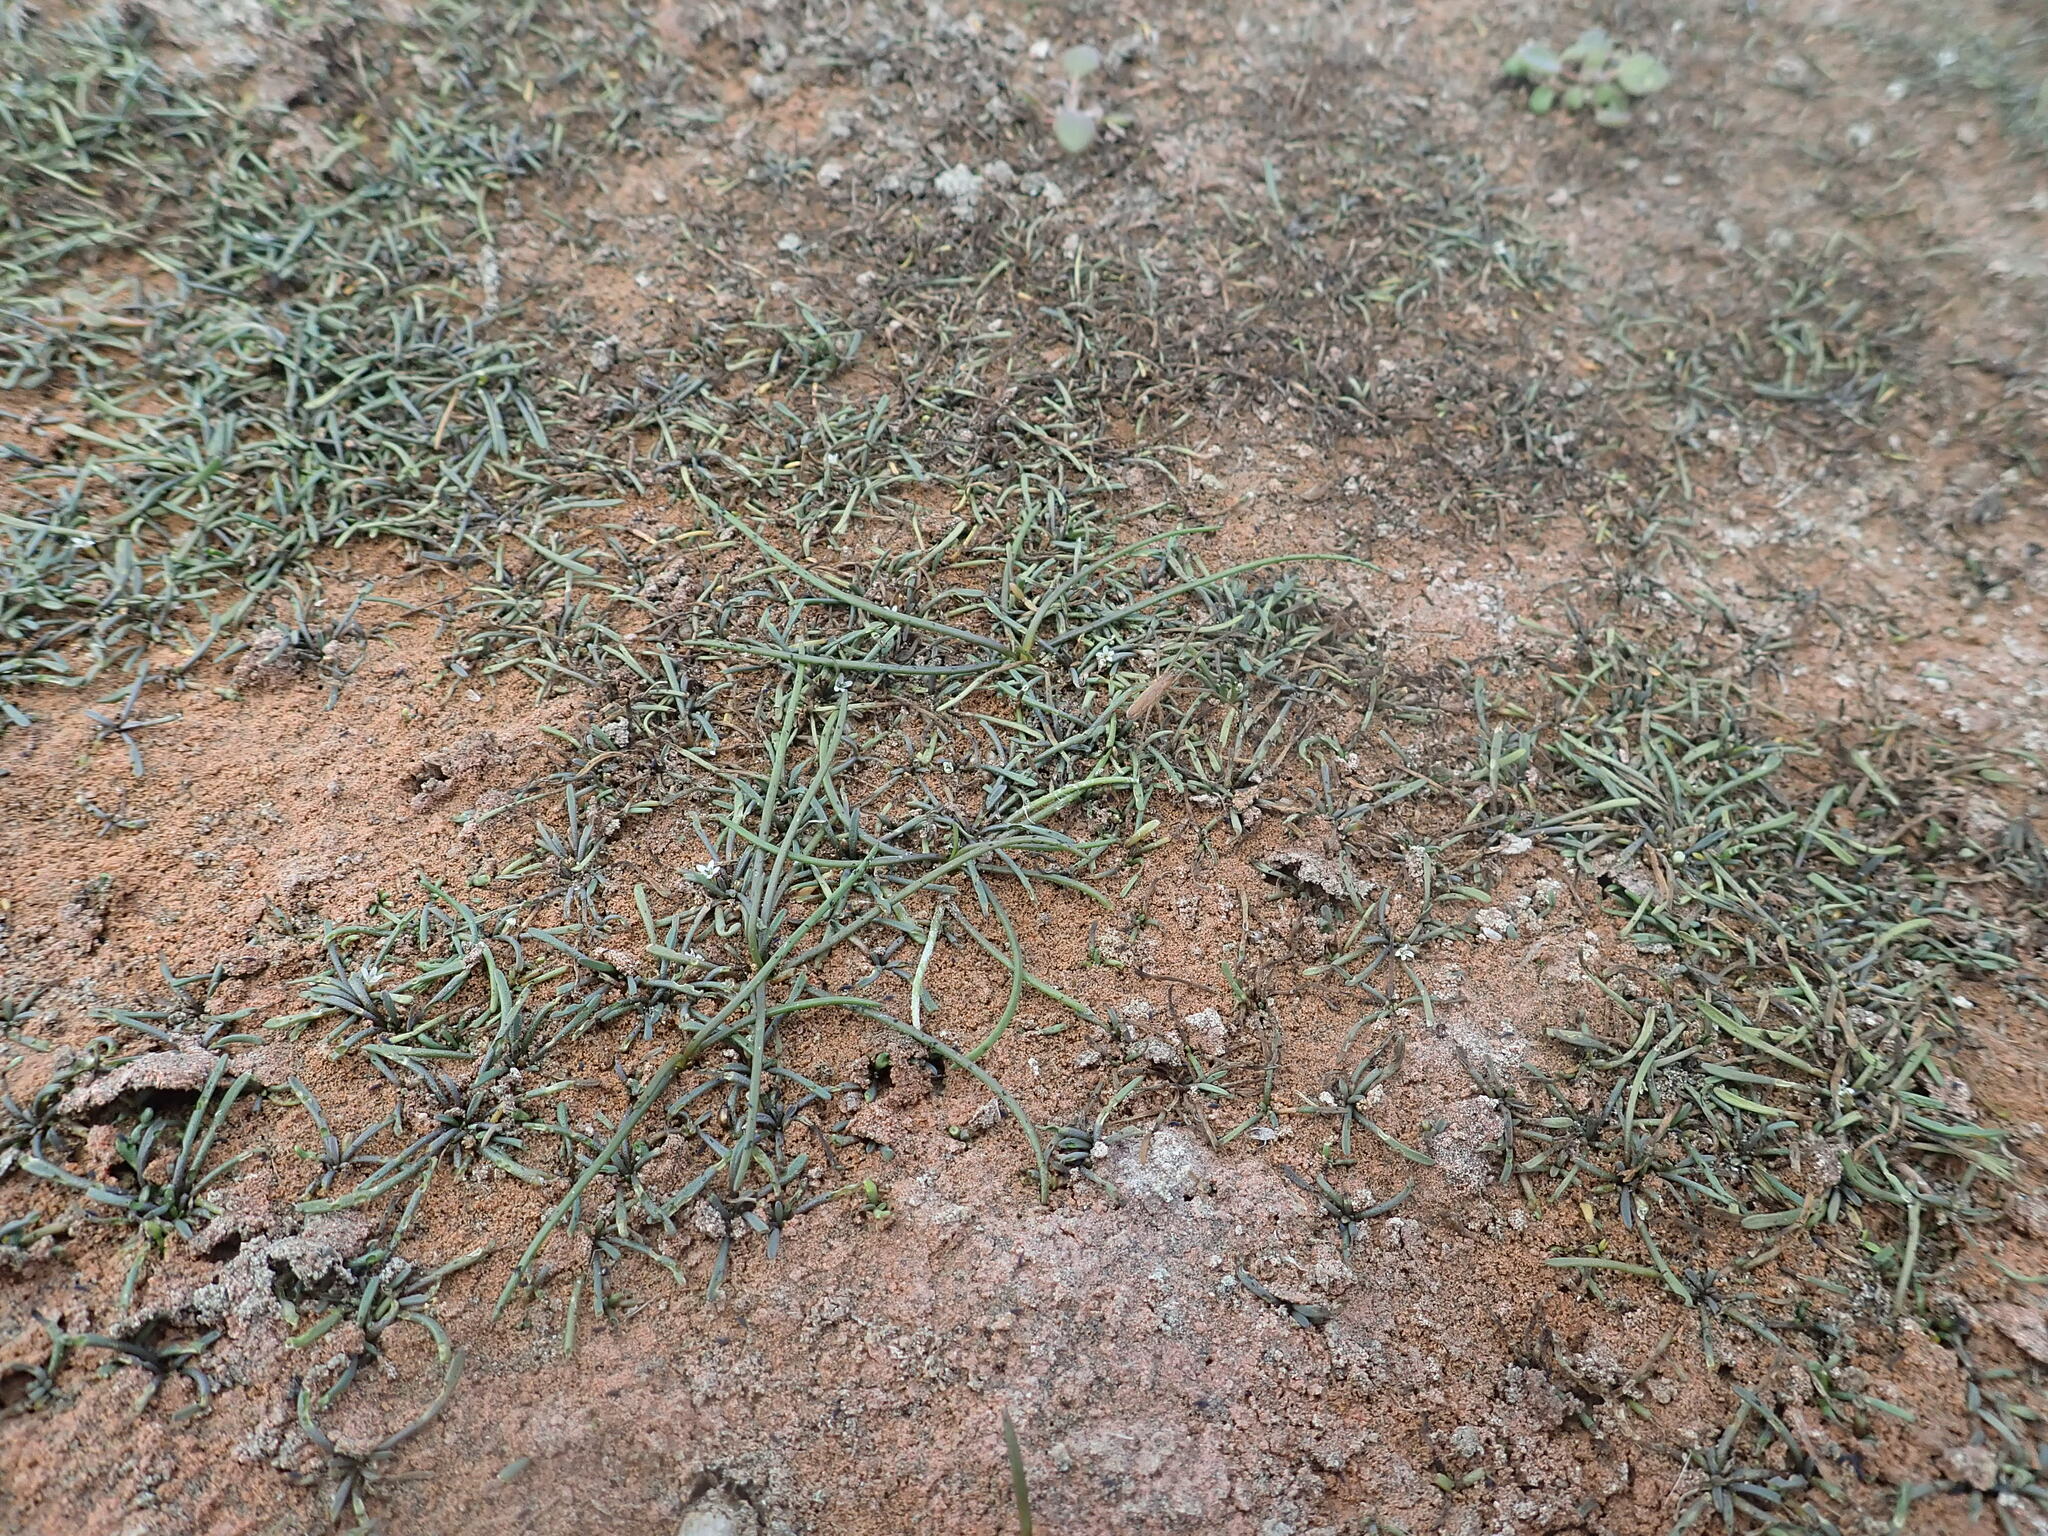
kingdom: Plantae
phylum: Tracheophyta
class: Magnoliopsida
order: Lamiales
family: Scrophulariaceae
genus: Limosella
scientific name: Limosella australis
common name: Welsh mudwort
